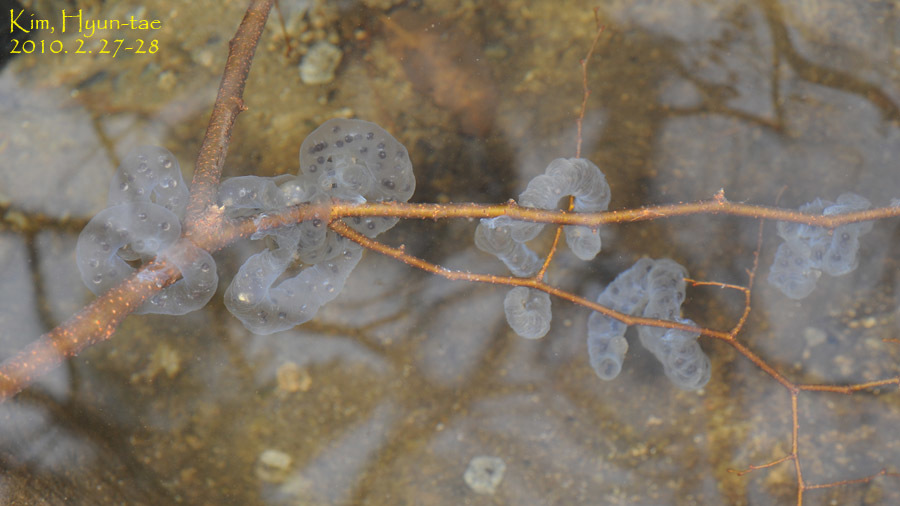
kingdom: Animalia
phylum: Chordata
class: Amphibia
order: Caudata
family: Hynobiidae
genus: Hynobius
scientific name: Hynobius leechii
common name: Gensan salamander
